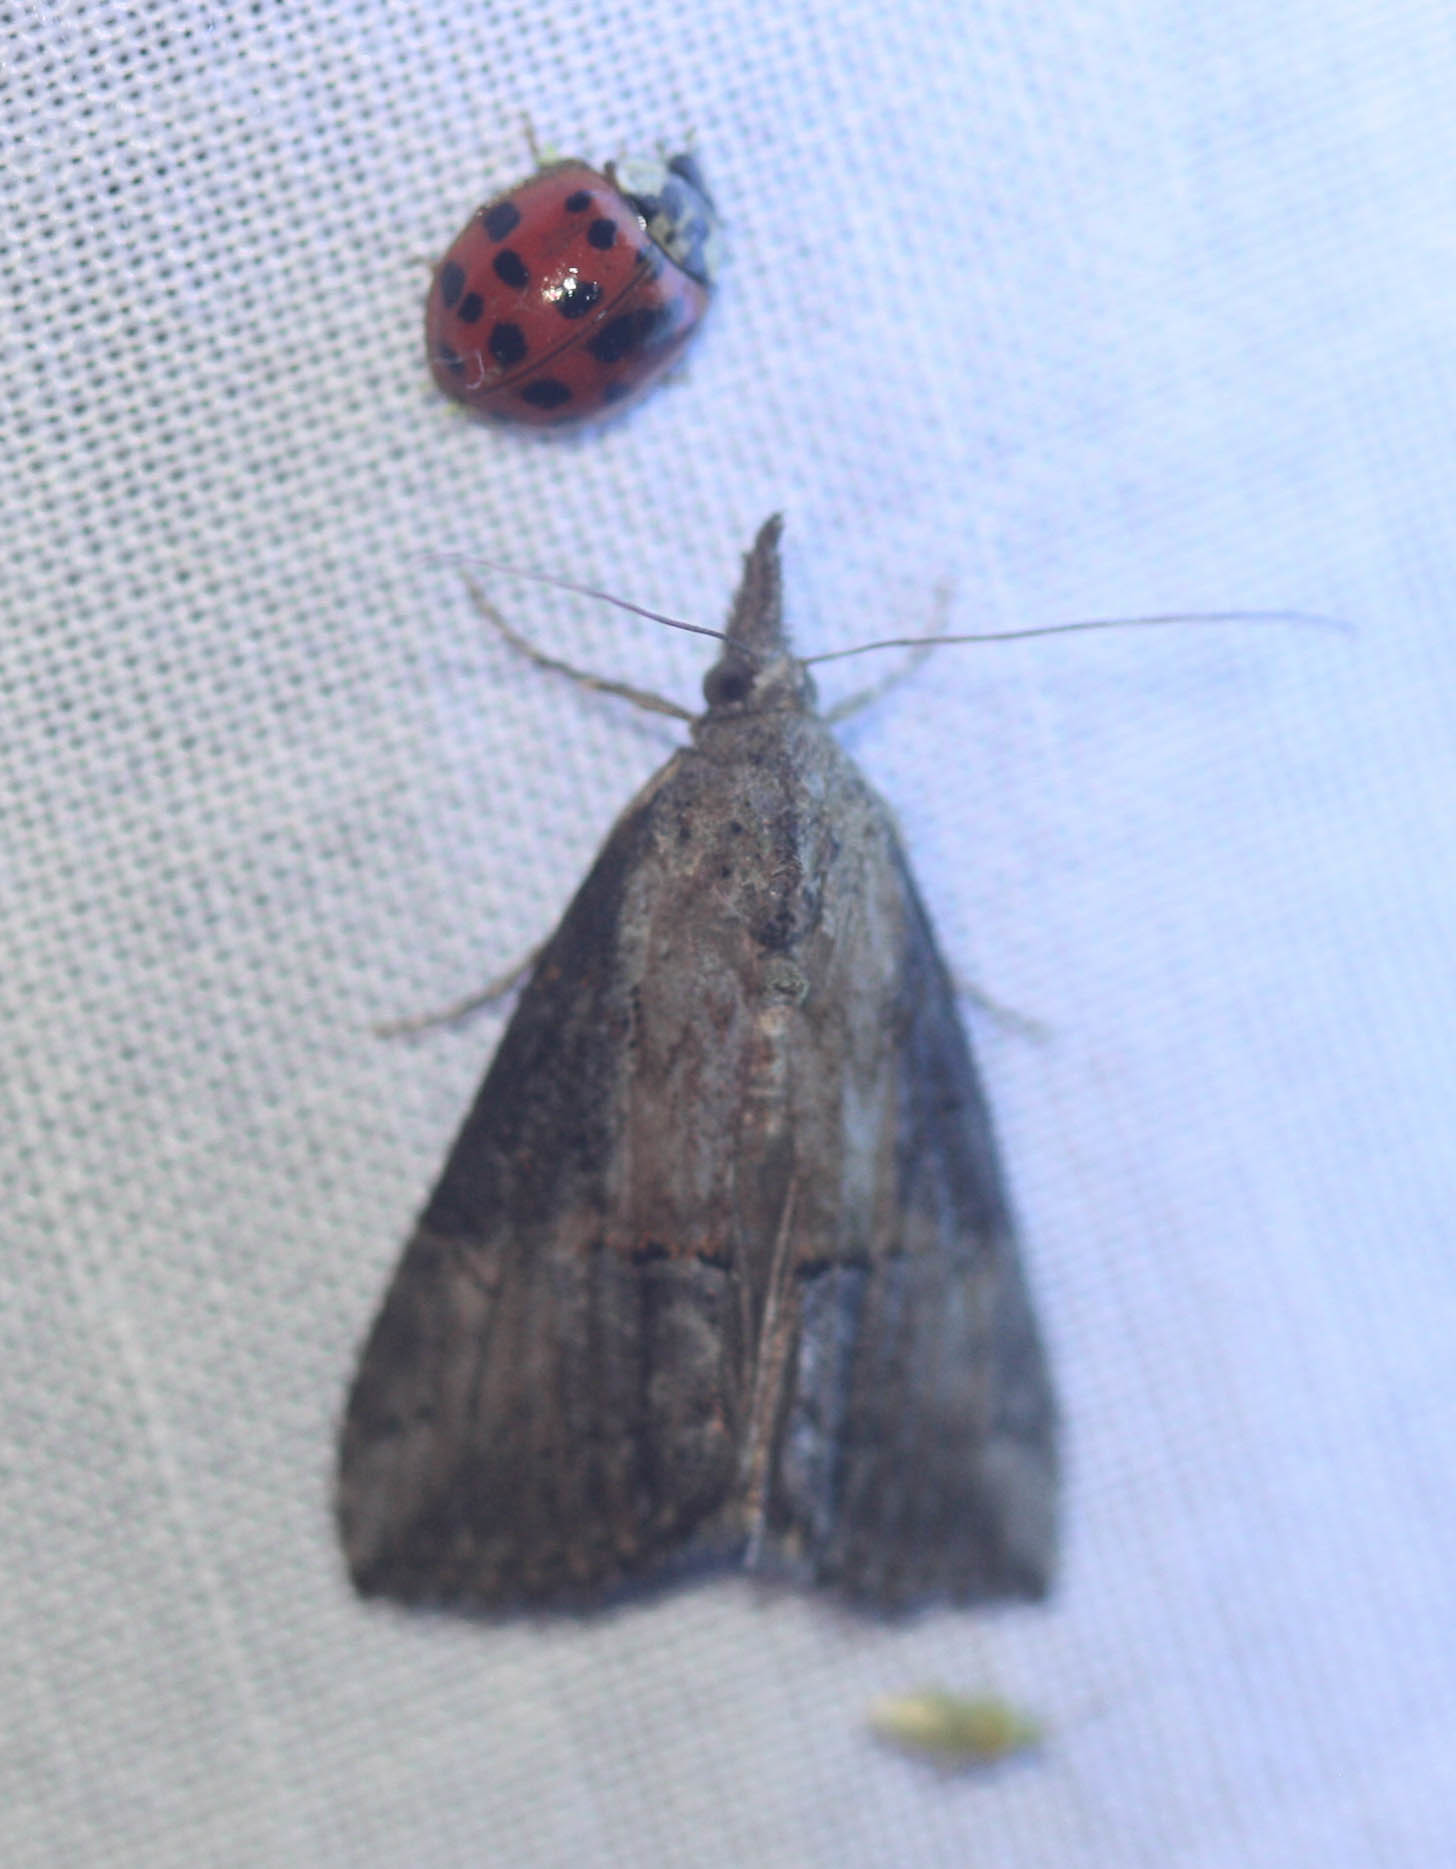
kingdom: Animalia
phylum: Arthropoda
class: Insecta
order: Lepidoptera
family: Erebidae
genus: Hypena
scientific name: Hypena scabra
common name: Green cloverworm
